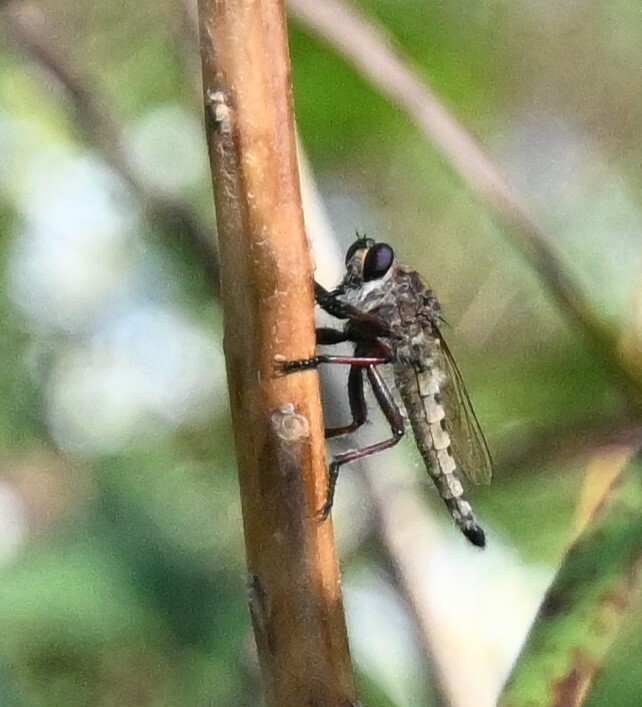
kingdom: Animalia
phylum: Arthropoda
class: Insecta
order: Diptera
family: Asilidae
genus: Promachus
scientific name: Promachus hinei
